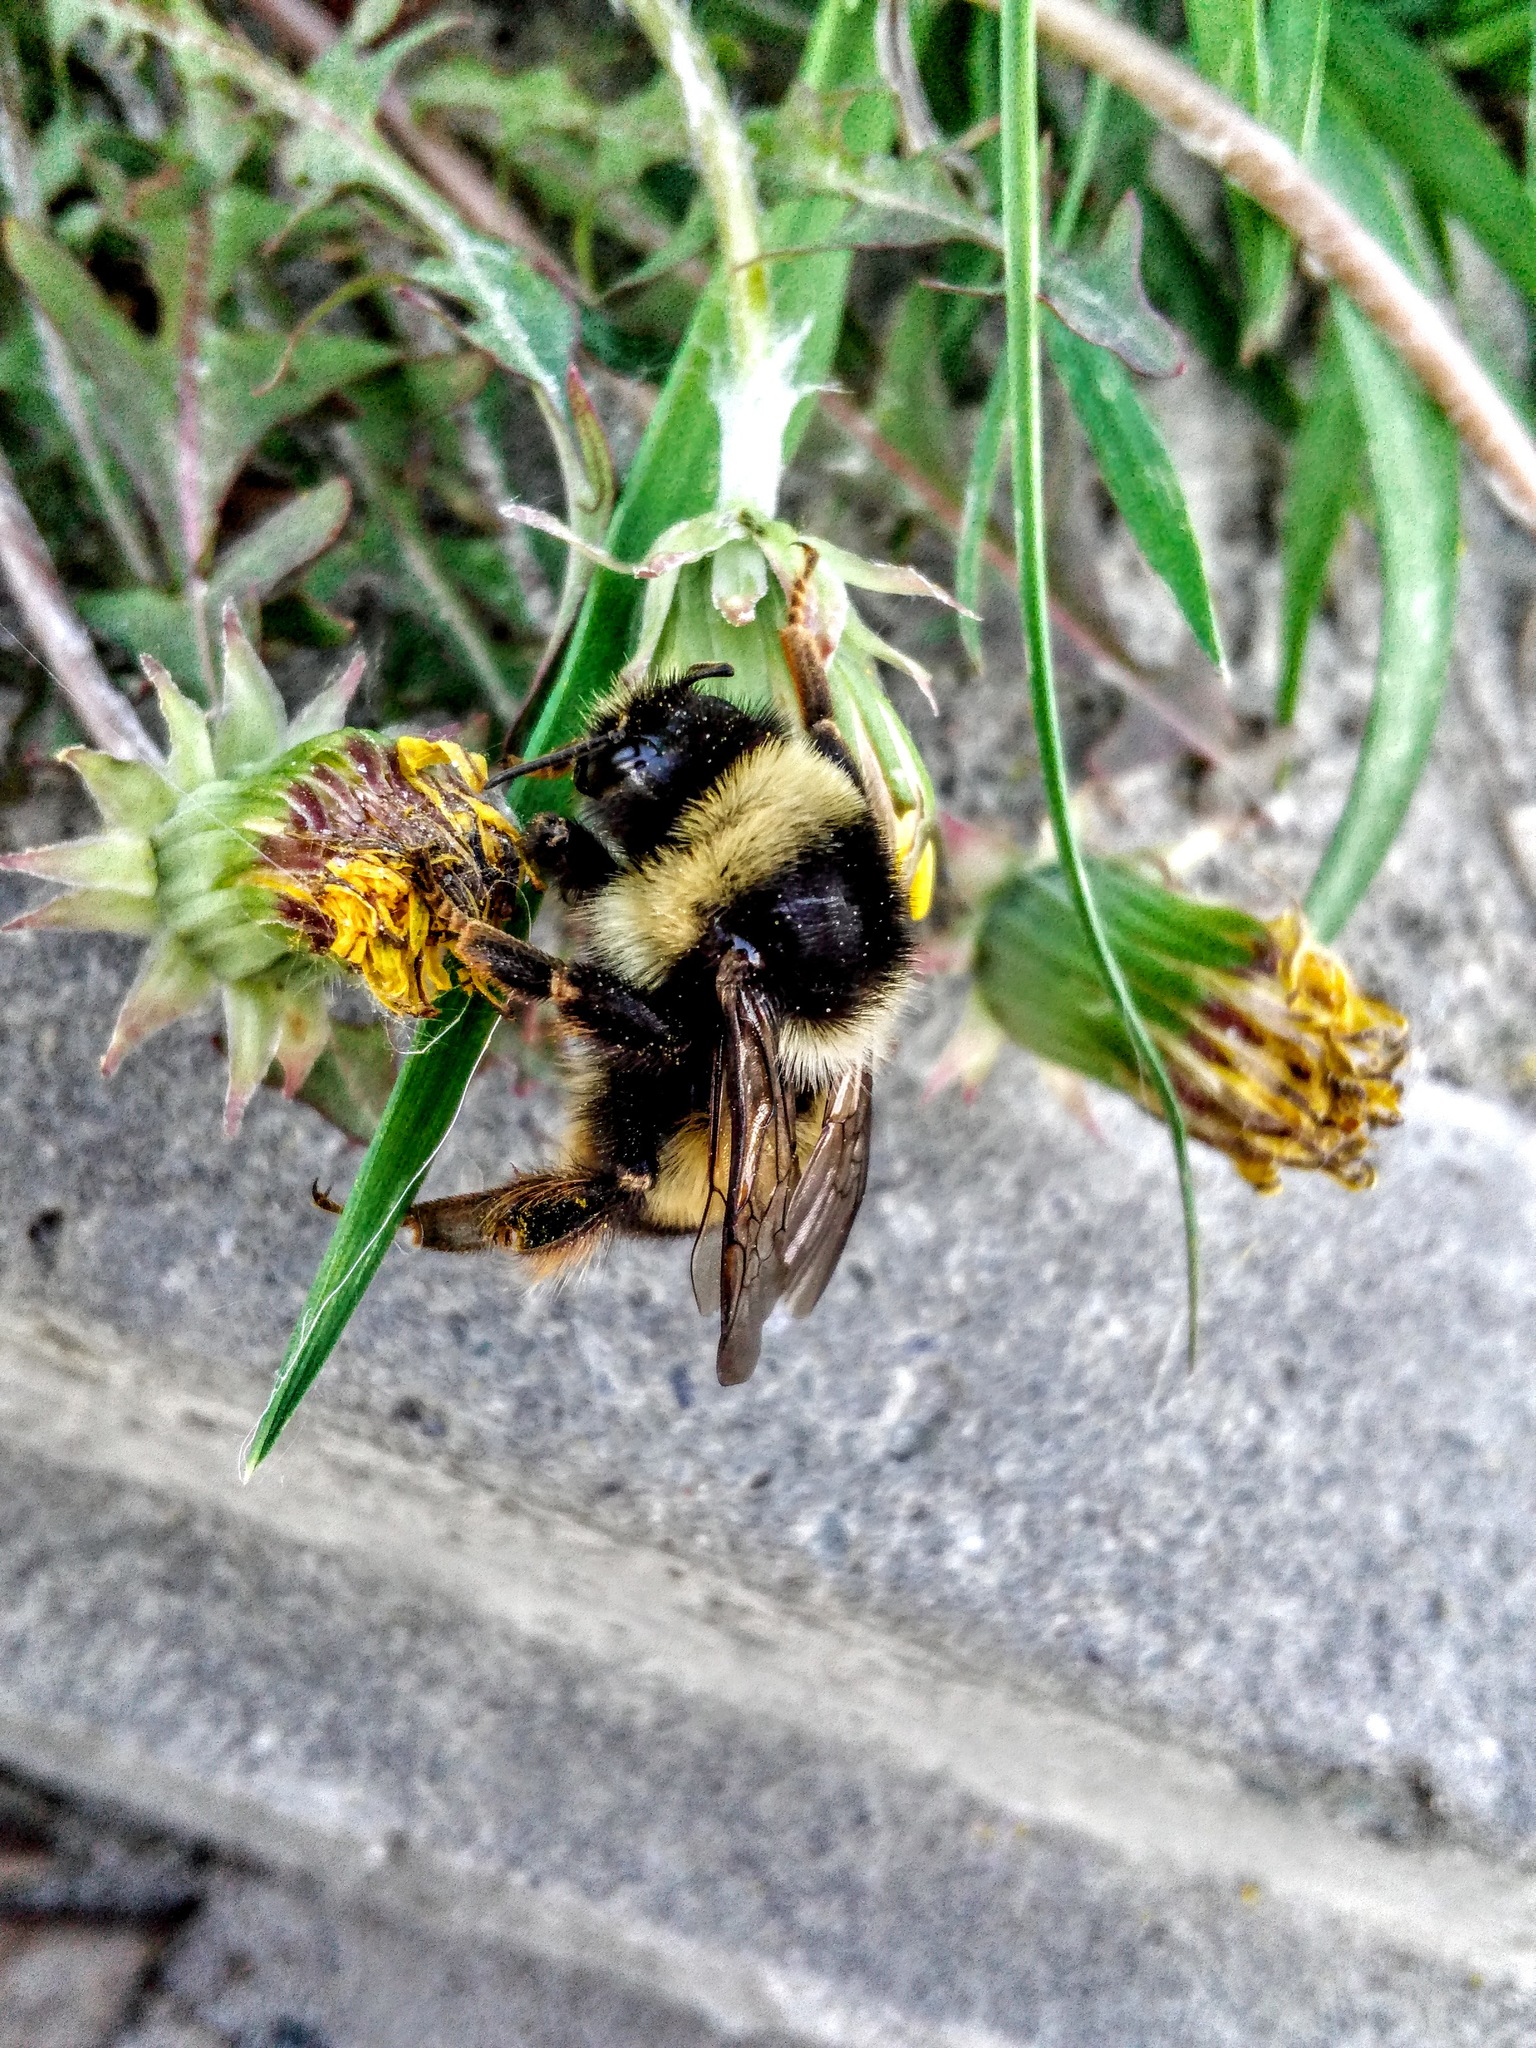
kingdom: Animalia
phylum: Arthropoda
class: Insecta
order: Hymenoptera
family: Apidae
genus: Bombus
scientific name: Bombus sichelii
